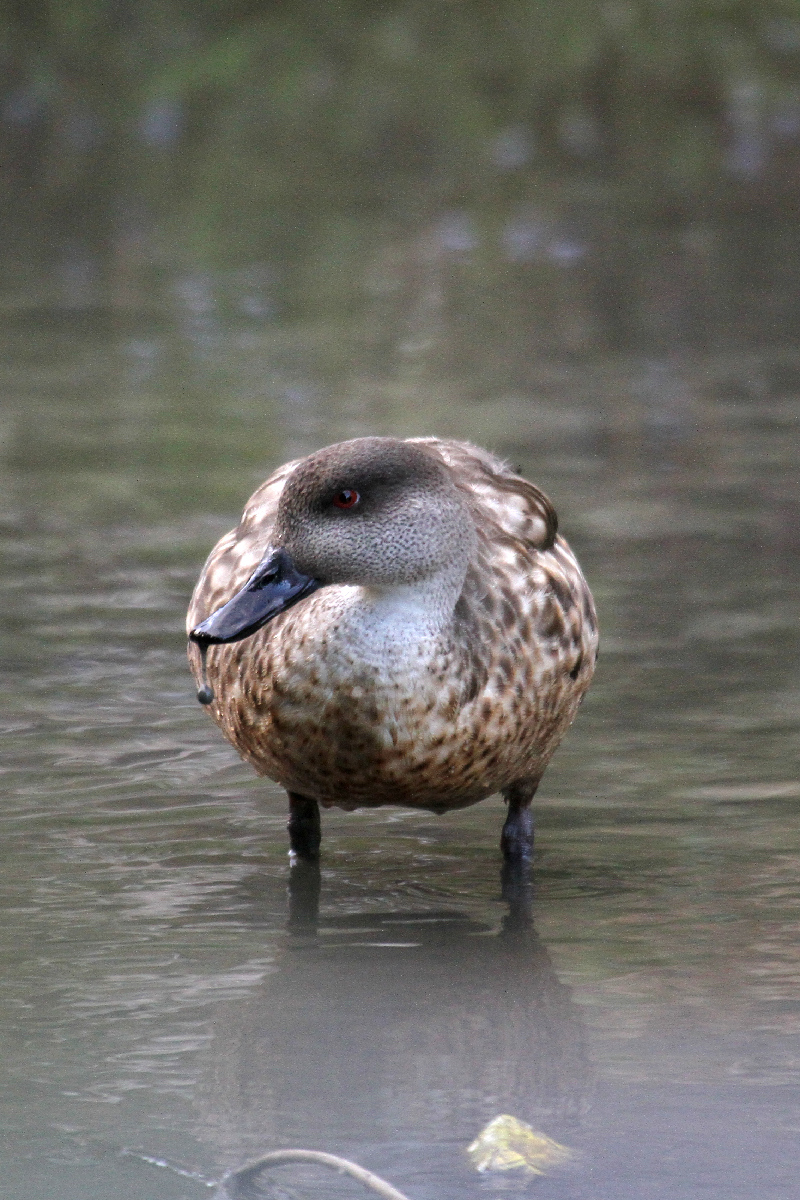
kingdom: Animalia
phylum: Chordata
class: Aves
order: Anseriformes
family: Anatidae
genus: Lophonetta
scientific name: Lophonetta specularioides
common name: Crested duck
